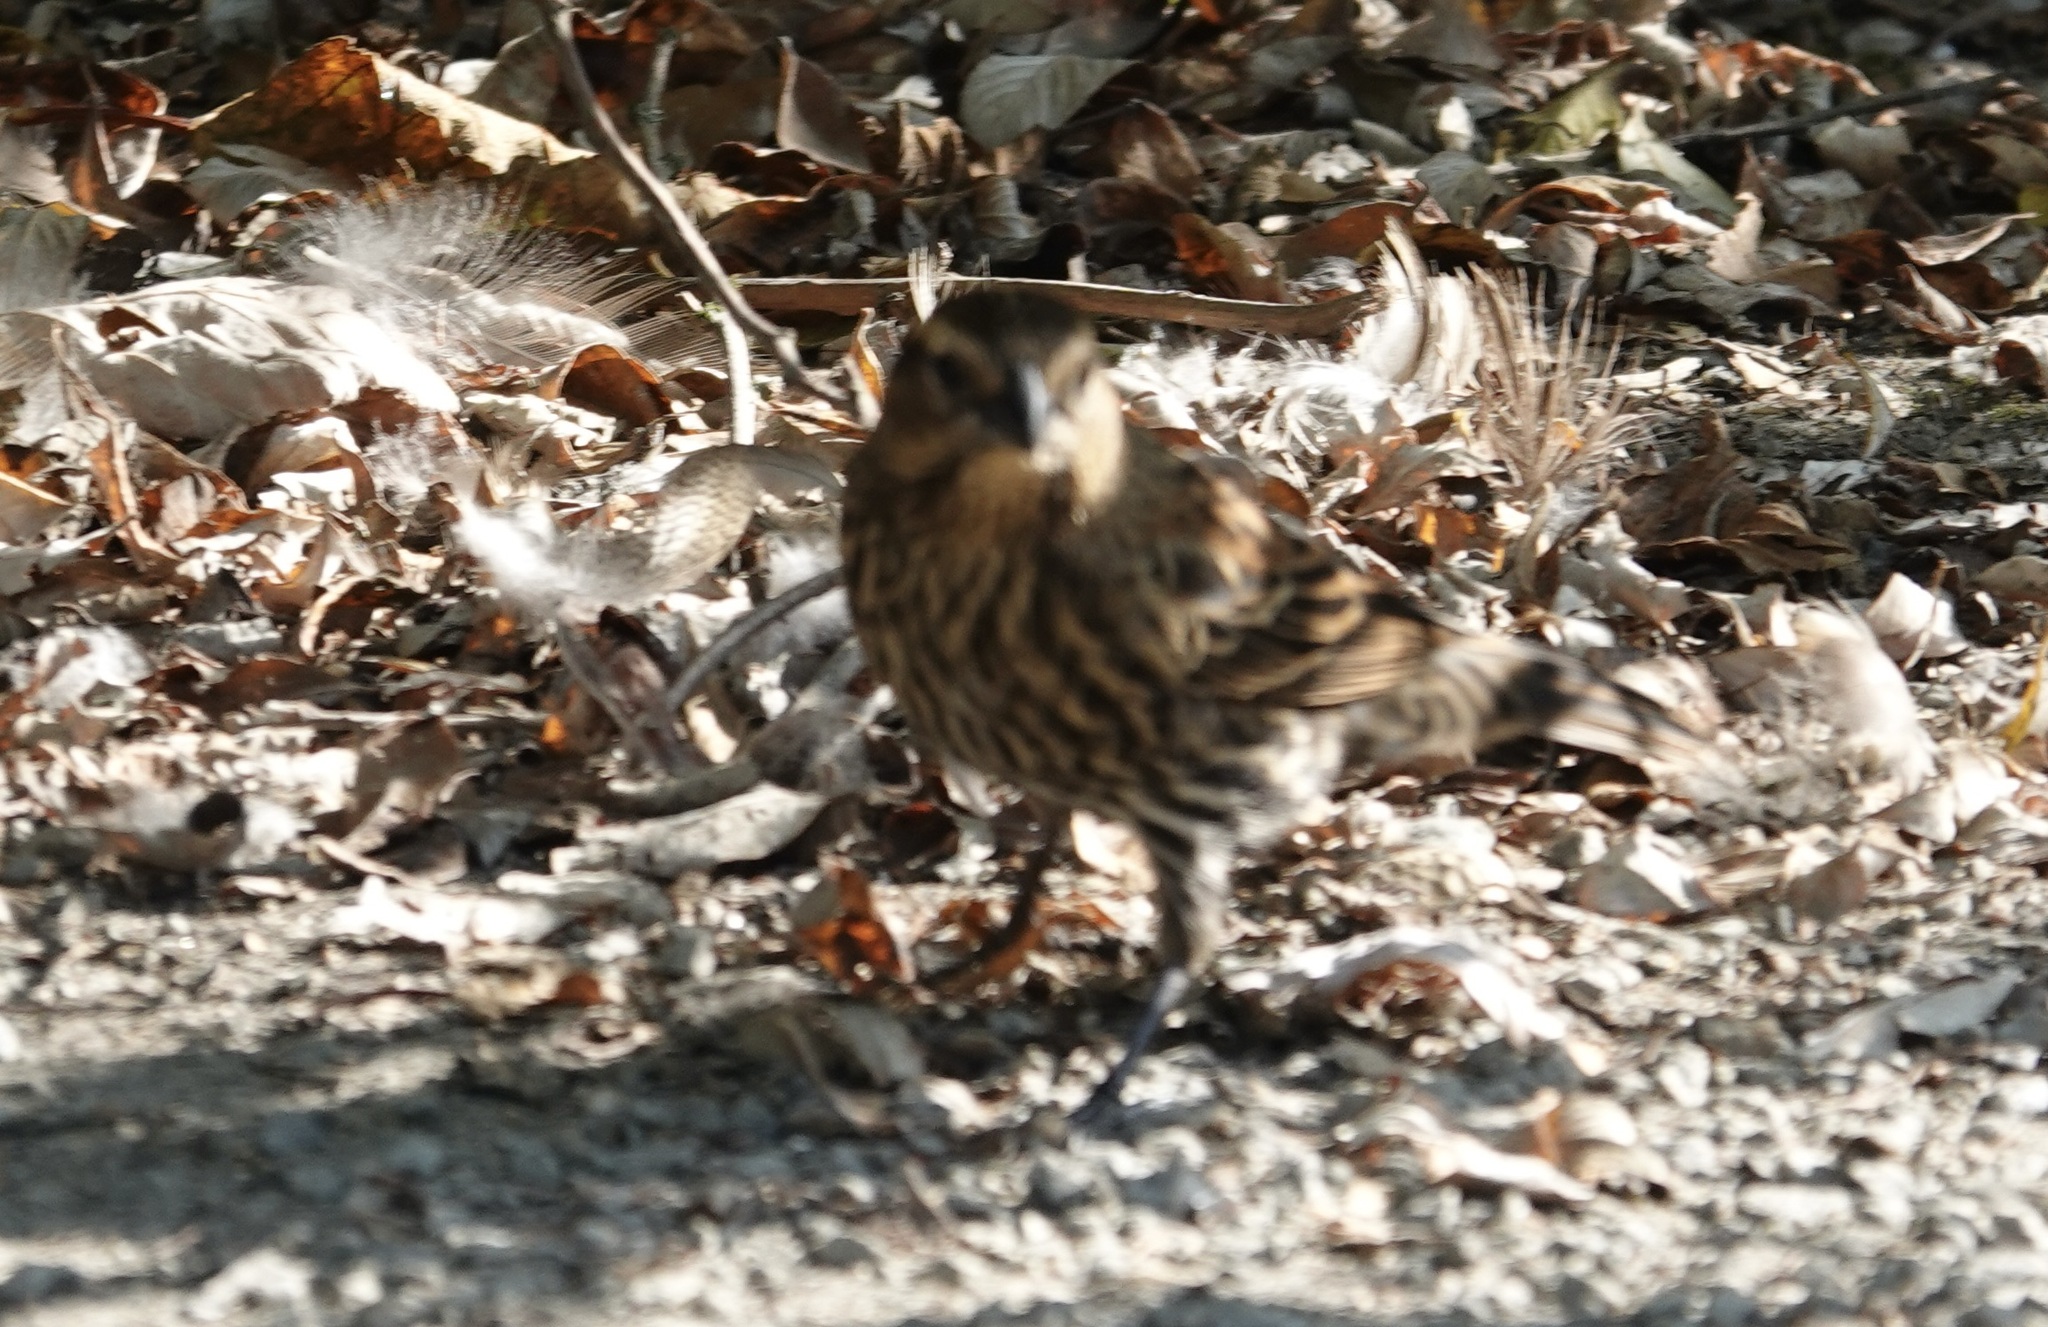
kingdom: Animalia
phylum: Chordata
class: Aves
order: Passeriformes
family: Icteridae
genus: Agelaius
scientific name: Agelaius phoeniceus
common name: Red-winged blackbird
